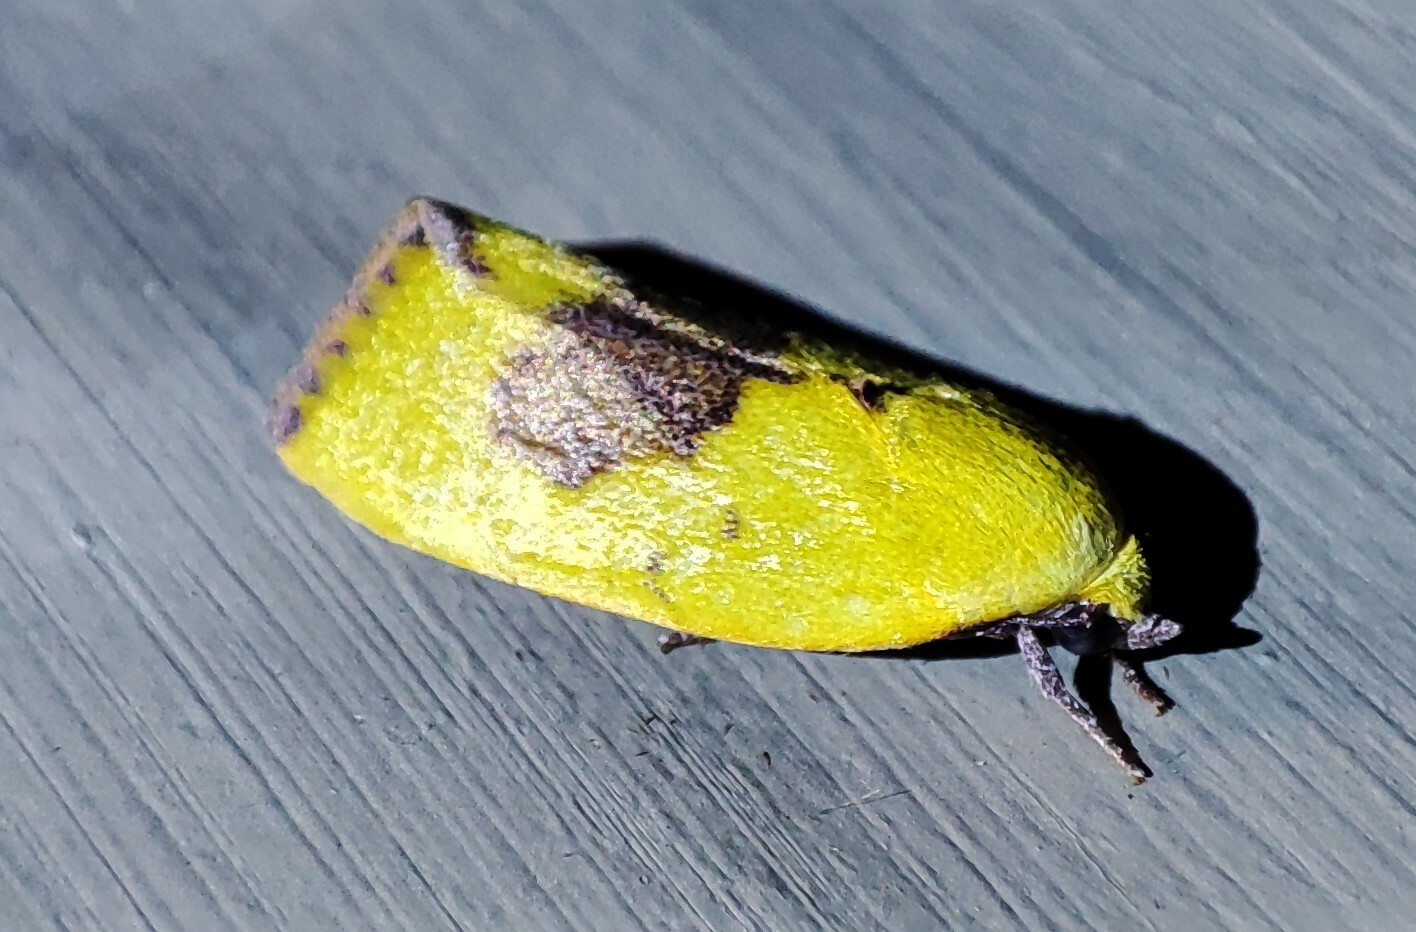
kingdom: Animalia
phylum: Arthropoda
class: Insecta
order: Lepidoptera
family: Nolidae
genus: Earias
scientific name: Earias biplaga
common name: Spiny bollworm
